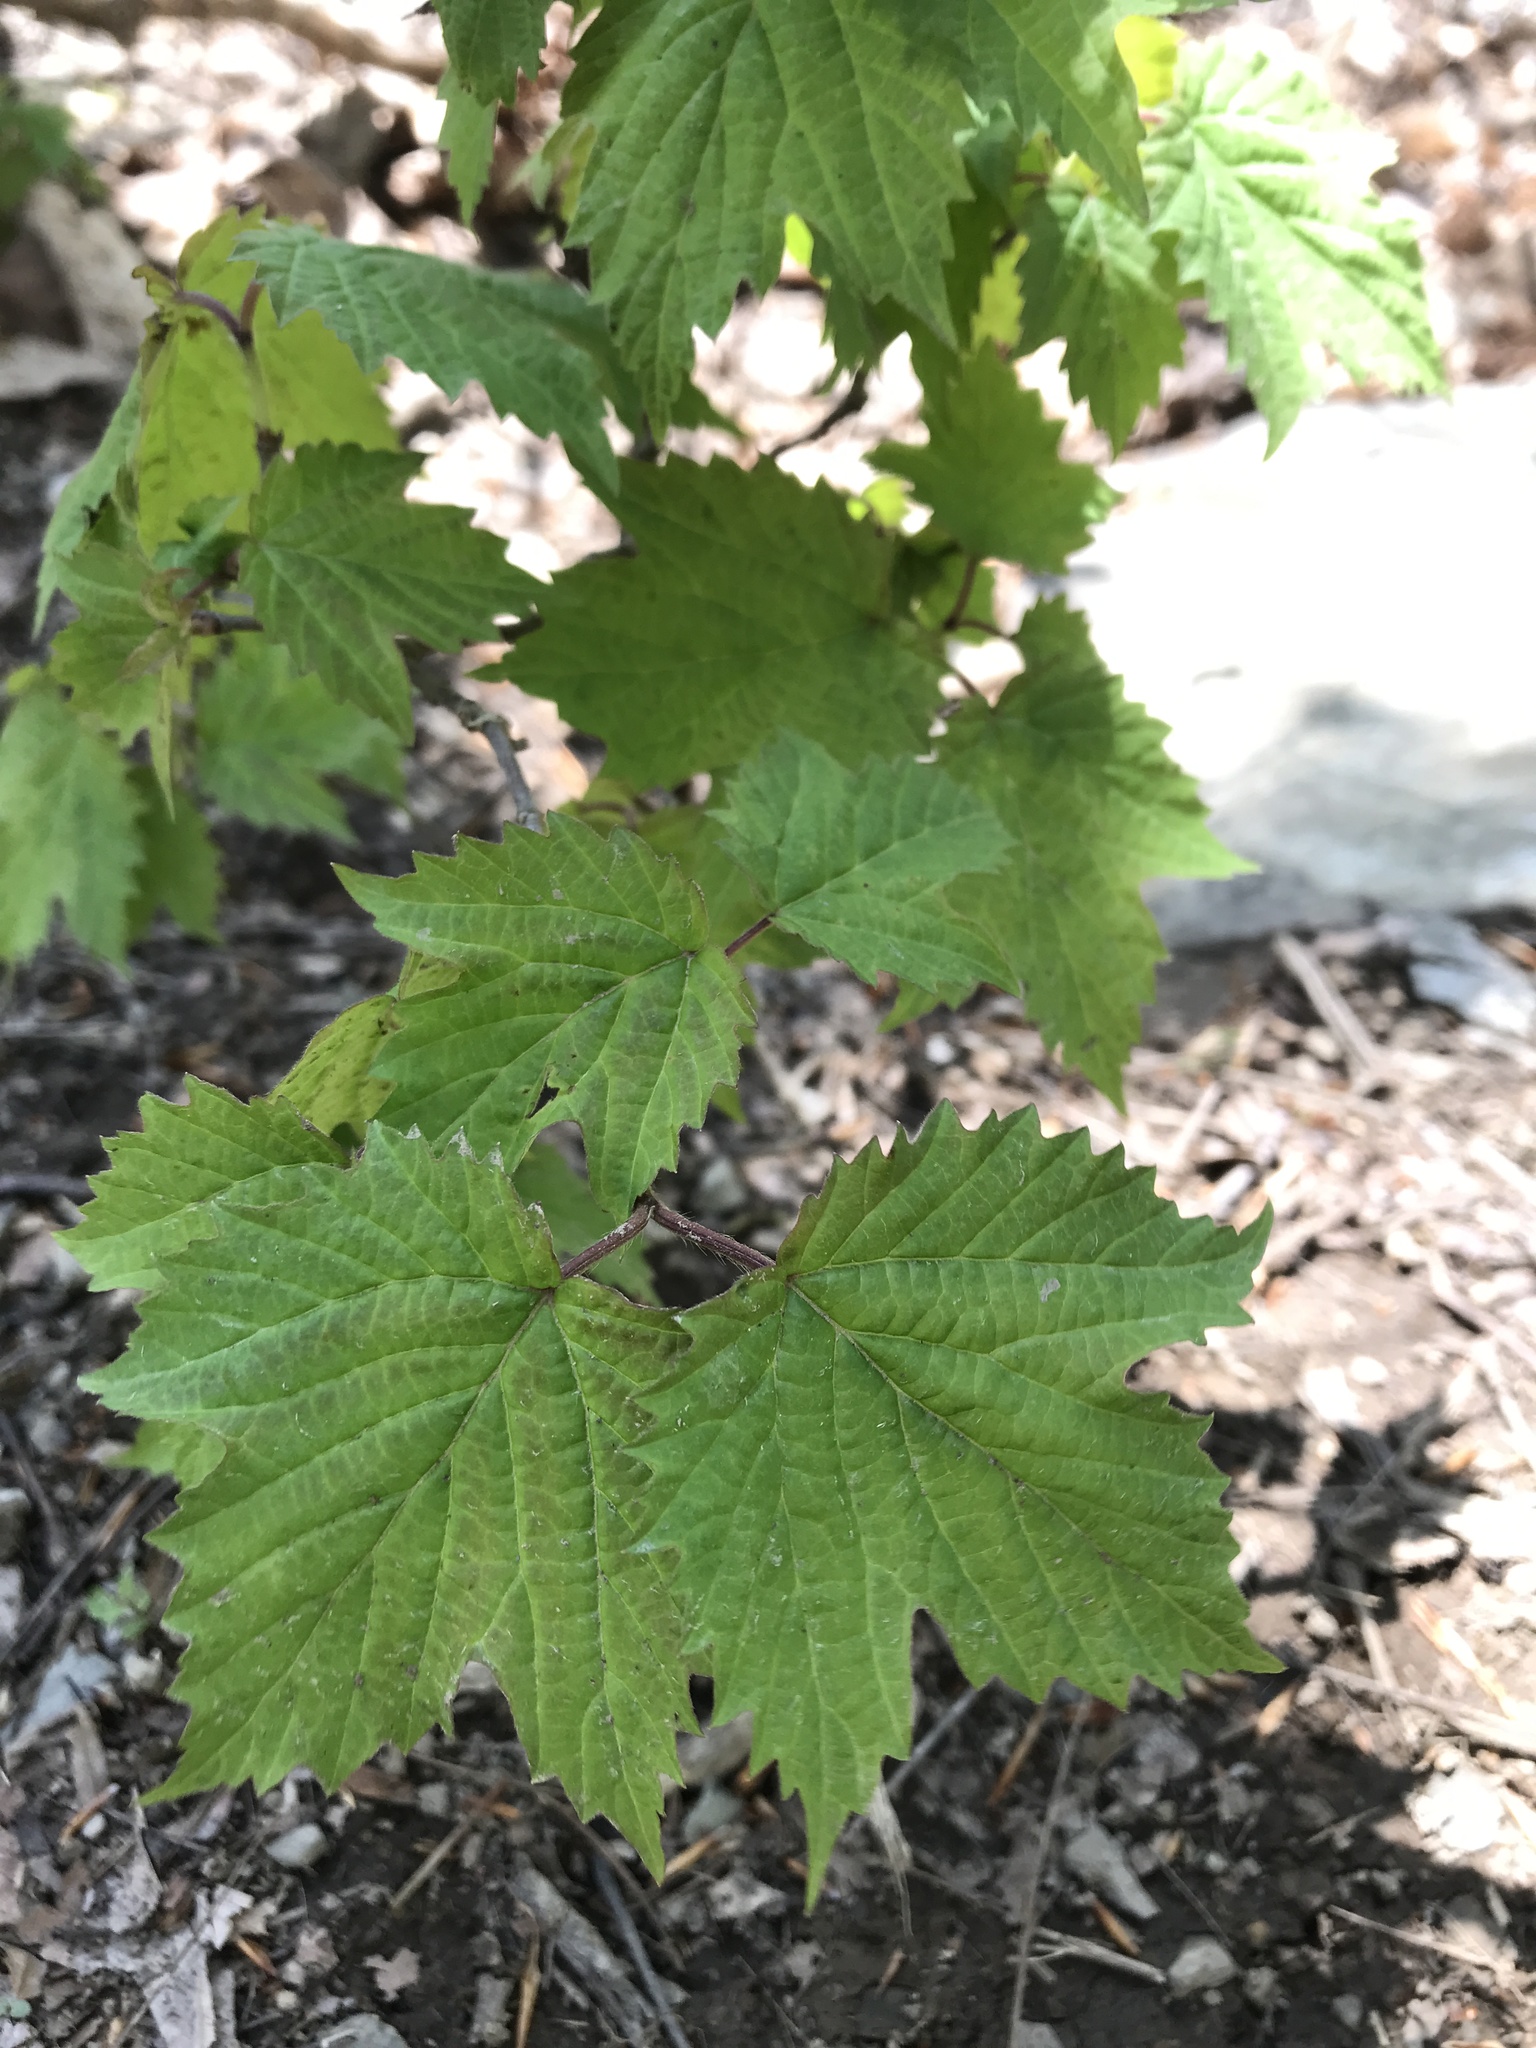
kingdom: Plantae
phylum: Tracheophyta
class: Magnoliopsida
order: Dipsacales
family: Viburnaceae
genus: Viburnum
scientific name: Viburnum acerifolium
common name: Dockmackie
